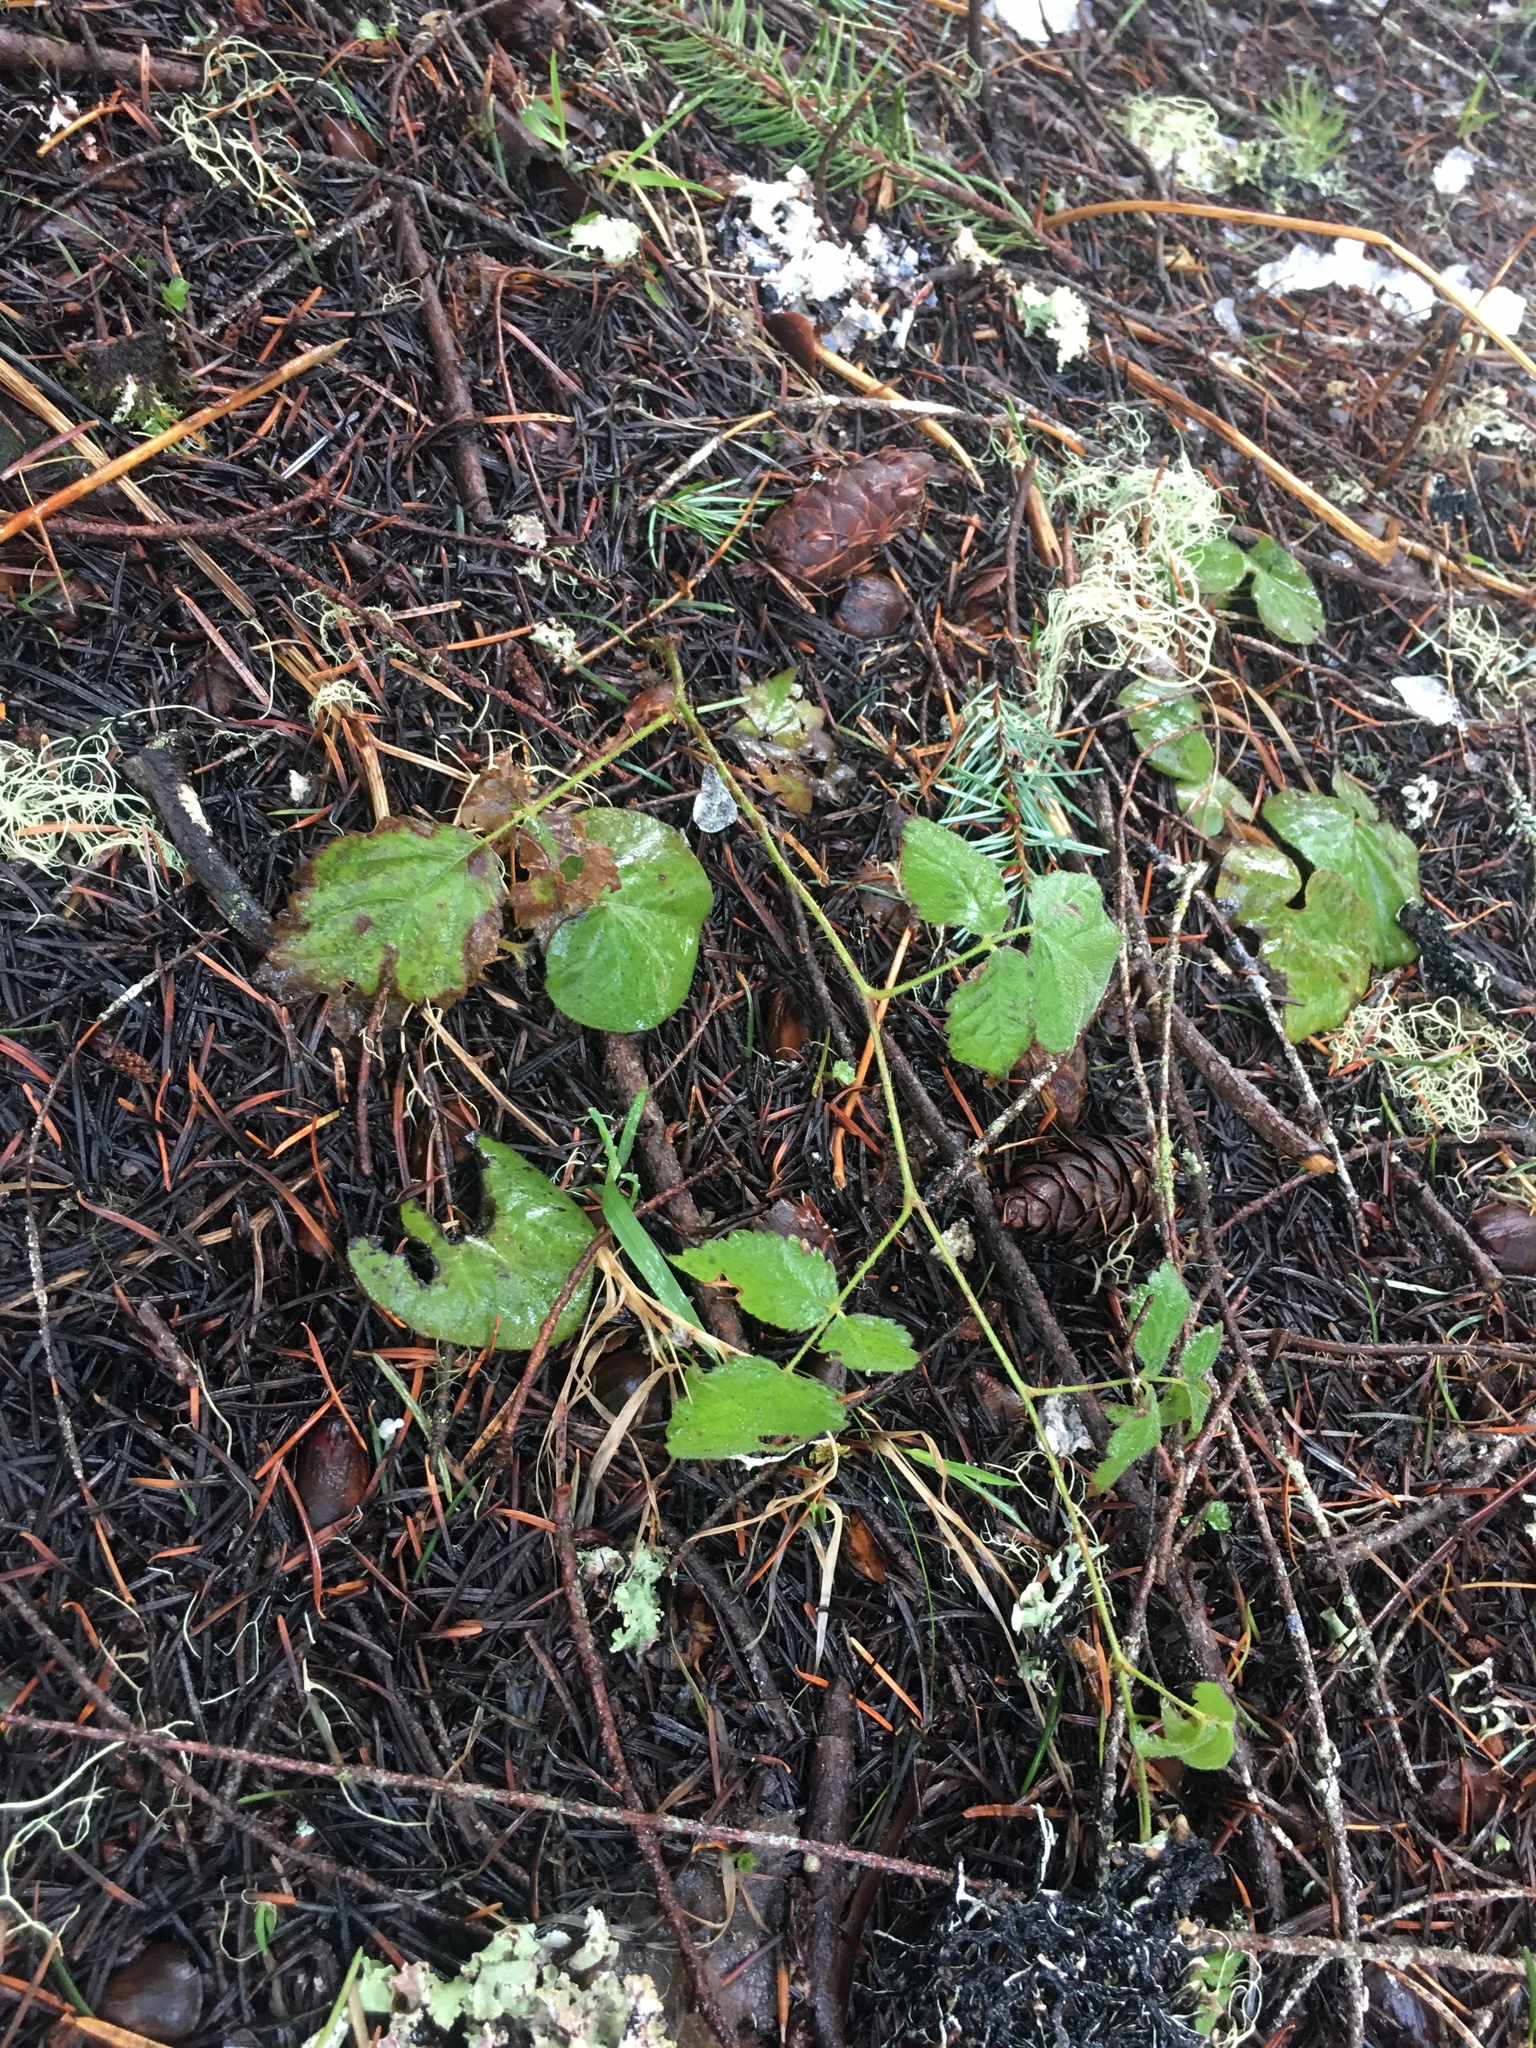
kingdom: Plantae
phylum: Tracheophyta
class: Magnoliopsida
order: Rosales
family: Rosaceae
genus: Rubus
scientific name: Rubus ursinus
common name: Pacific blackberry
